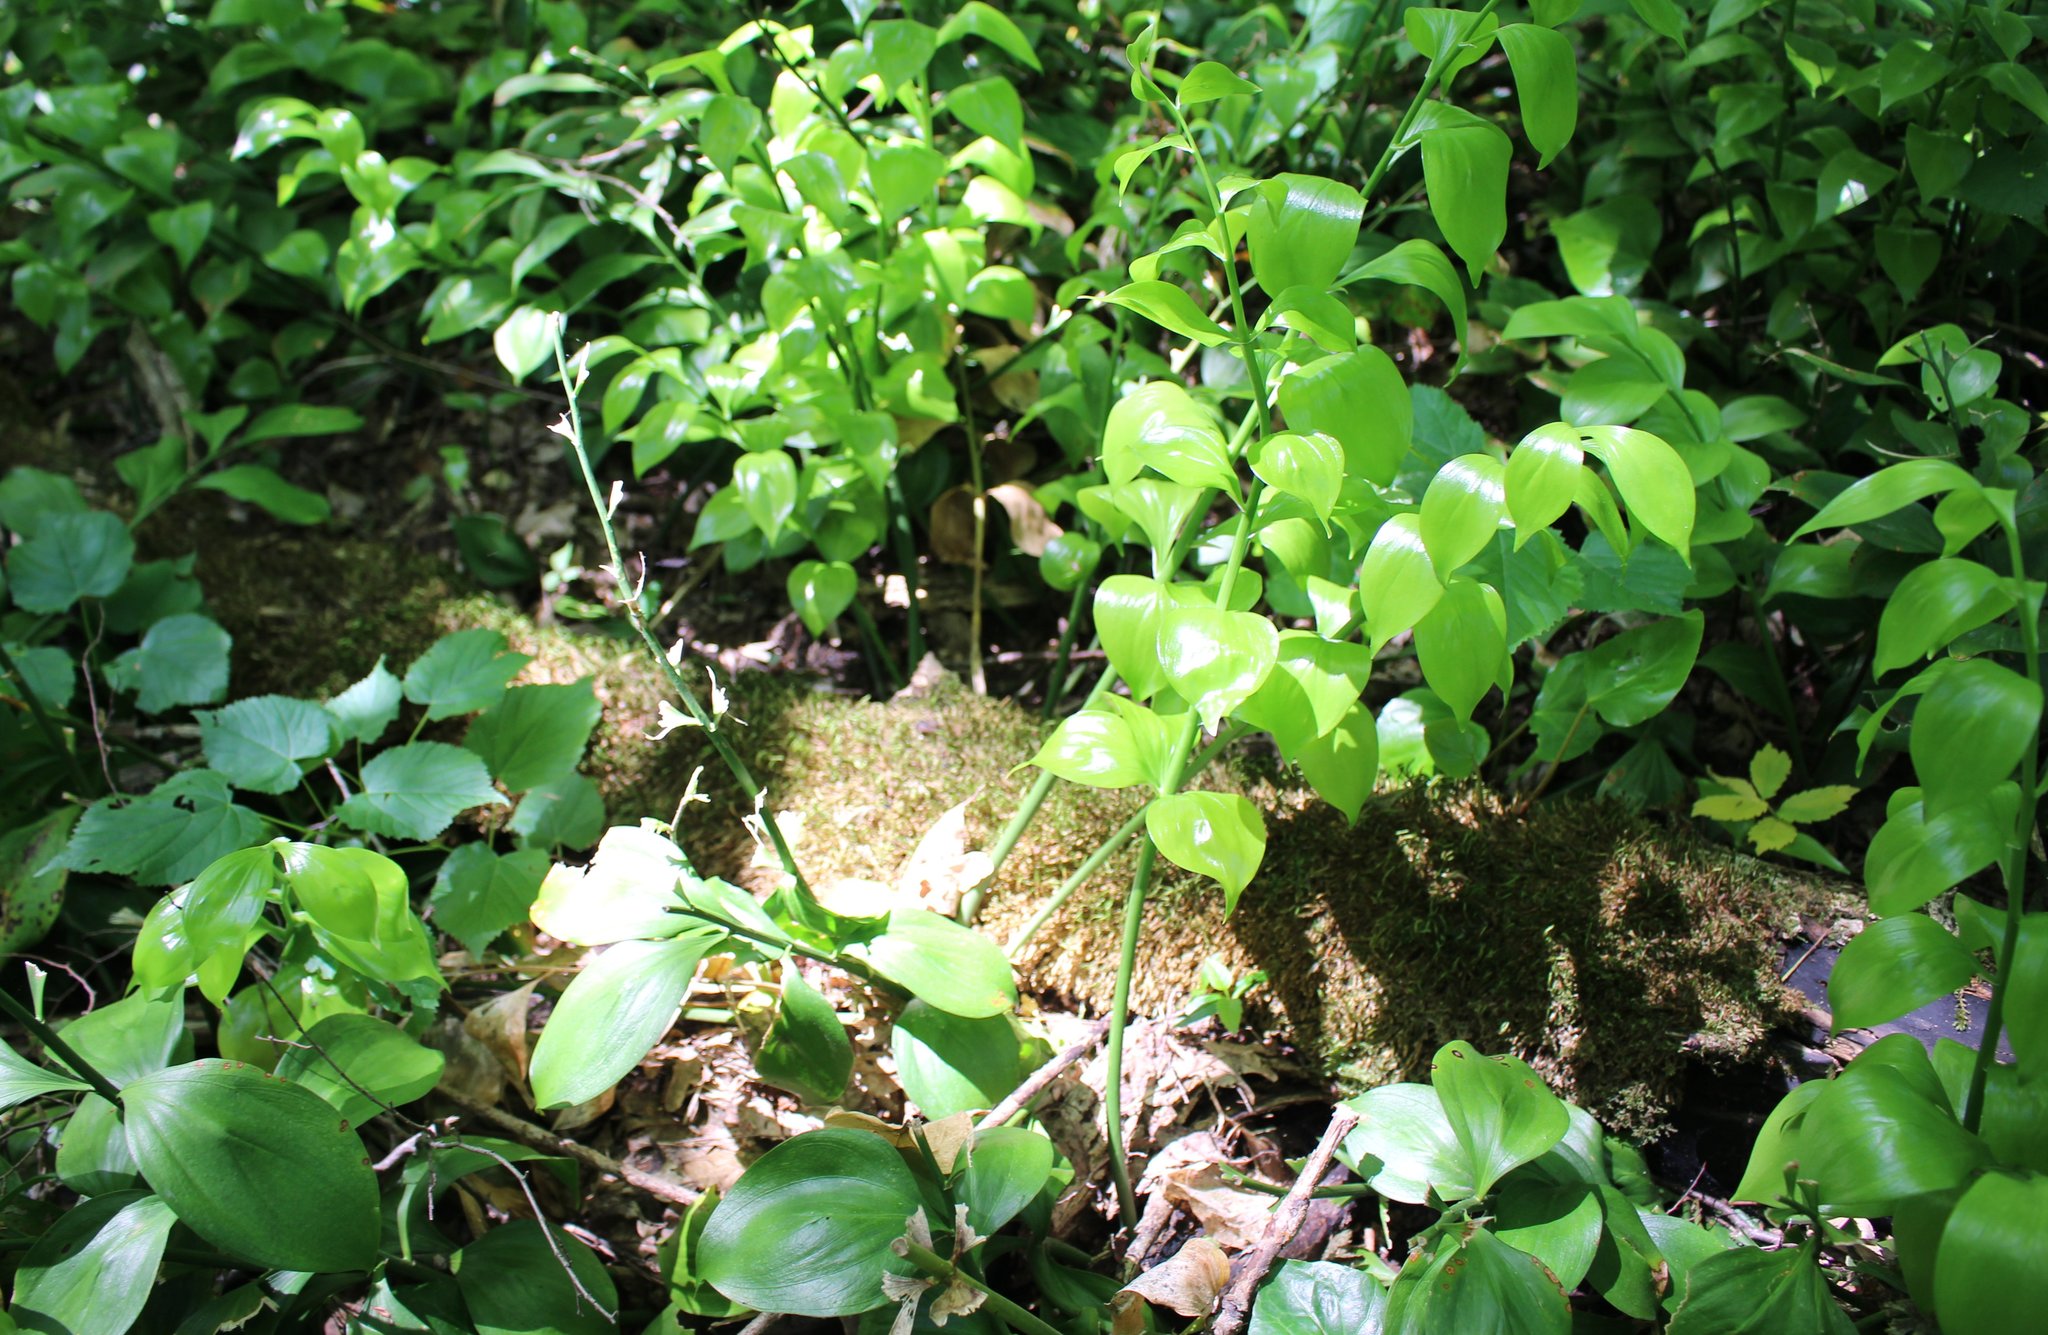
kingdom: Plantae
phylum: Tracheophyta
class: Liliopsida
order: Asparagales
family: Asparagaceae
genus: Ruscus
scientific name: Ruscus colchicus
